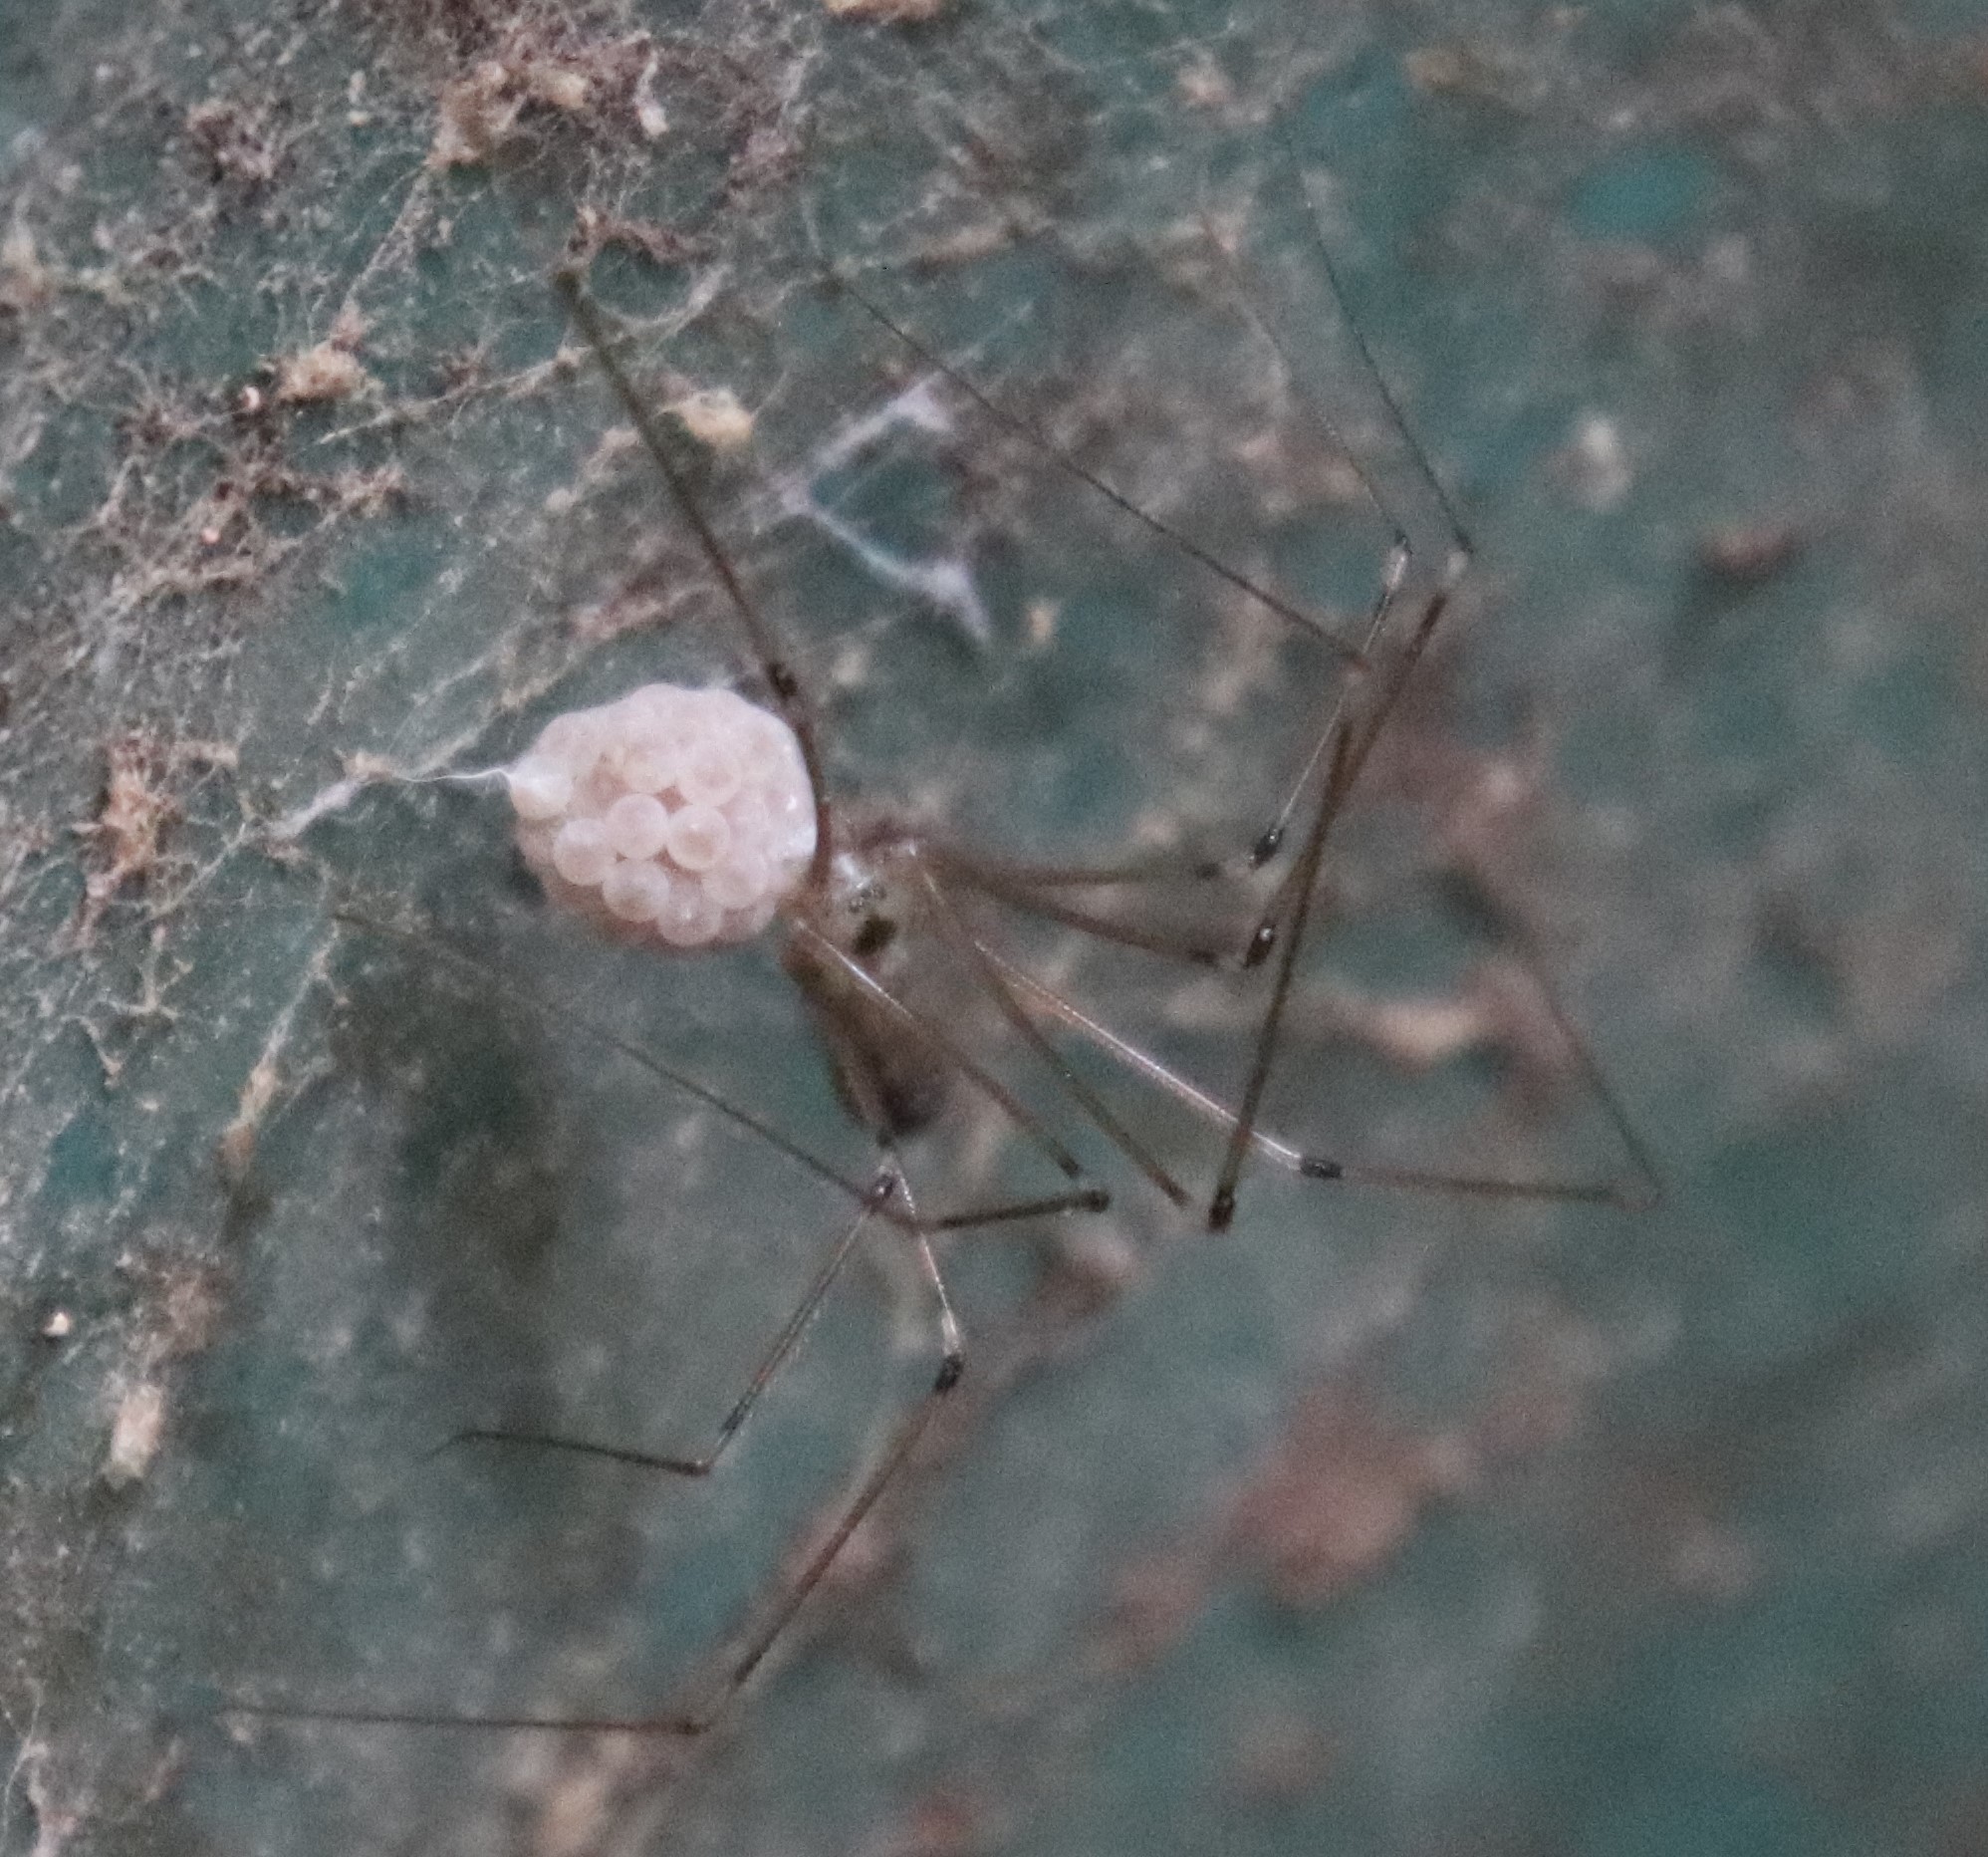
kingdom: Animalia
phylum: Arthropoda
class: Arachnida
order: Araneae
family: Pholcidae
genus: Pholcus
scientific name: Pholcus phalangioides
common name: Longbodied cellar spider
